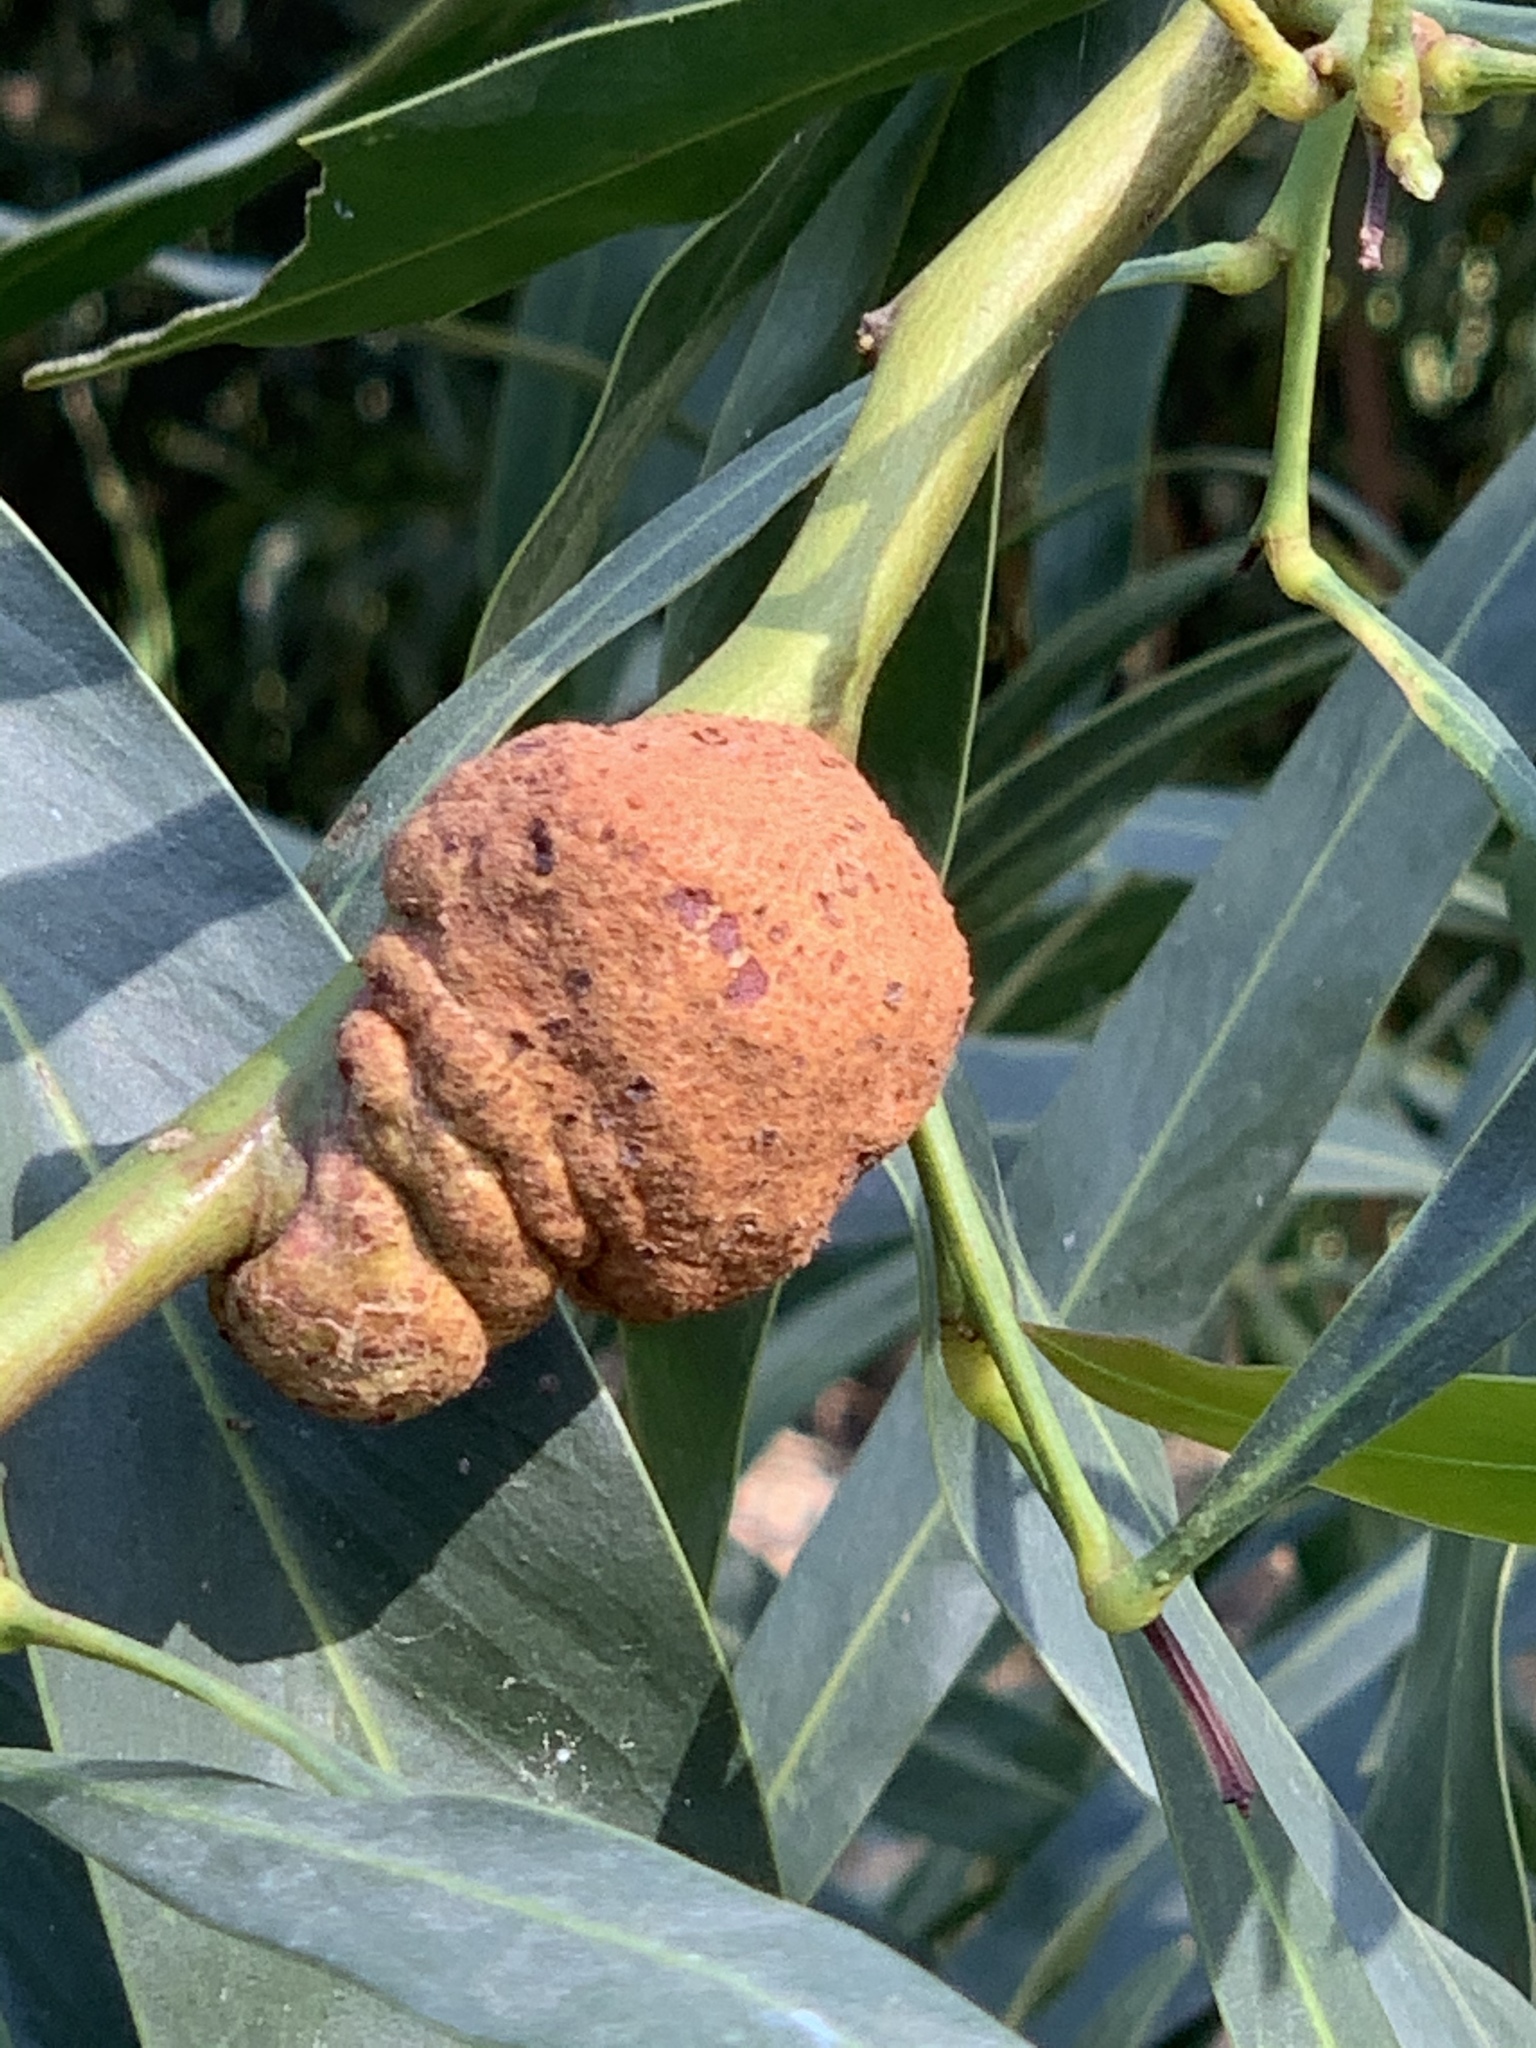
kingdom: Fungi
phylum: Basidiomycota
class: Pucciniomycetes
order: Pucciniales
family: Uromycladiaceae
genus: Uromycladium
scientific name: Uromycladium morrisii
